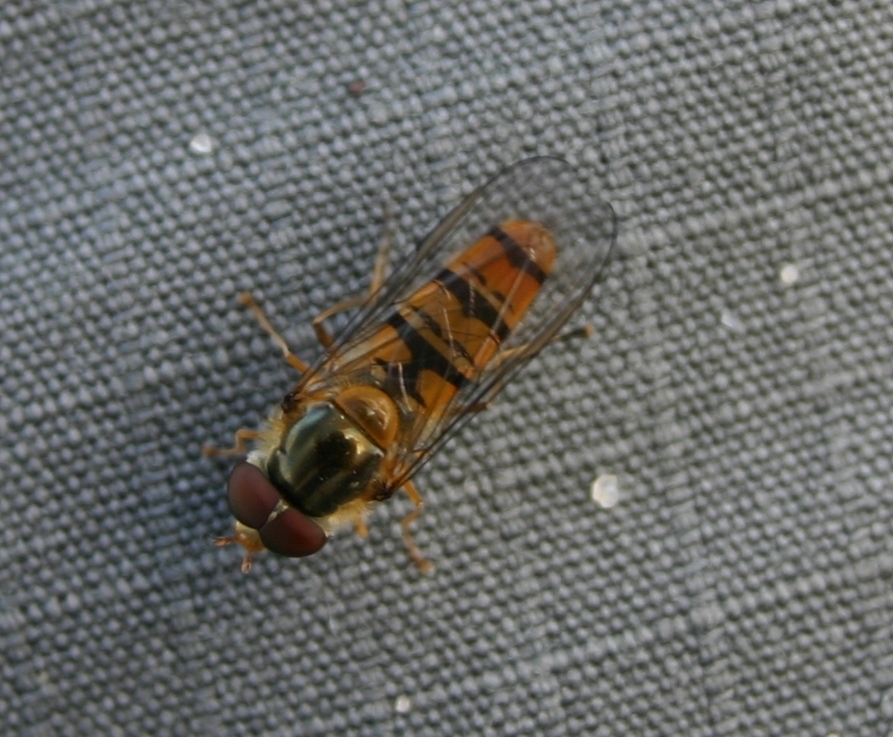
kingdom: Animalia
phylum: Arthropoda
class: Insecta
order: Diptera
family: Syrphidae
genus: Episyrphus
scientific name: Episyrphus balteatus
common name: Marmalade hoverfly
